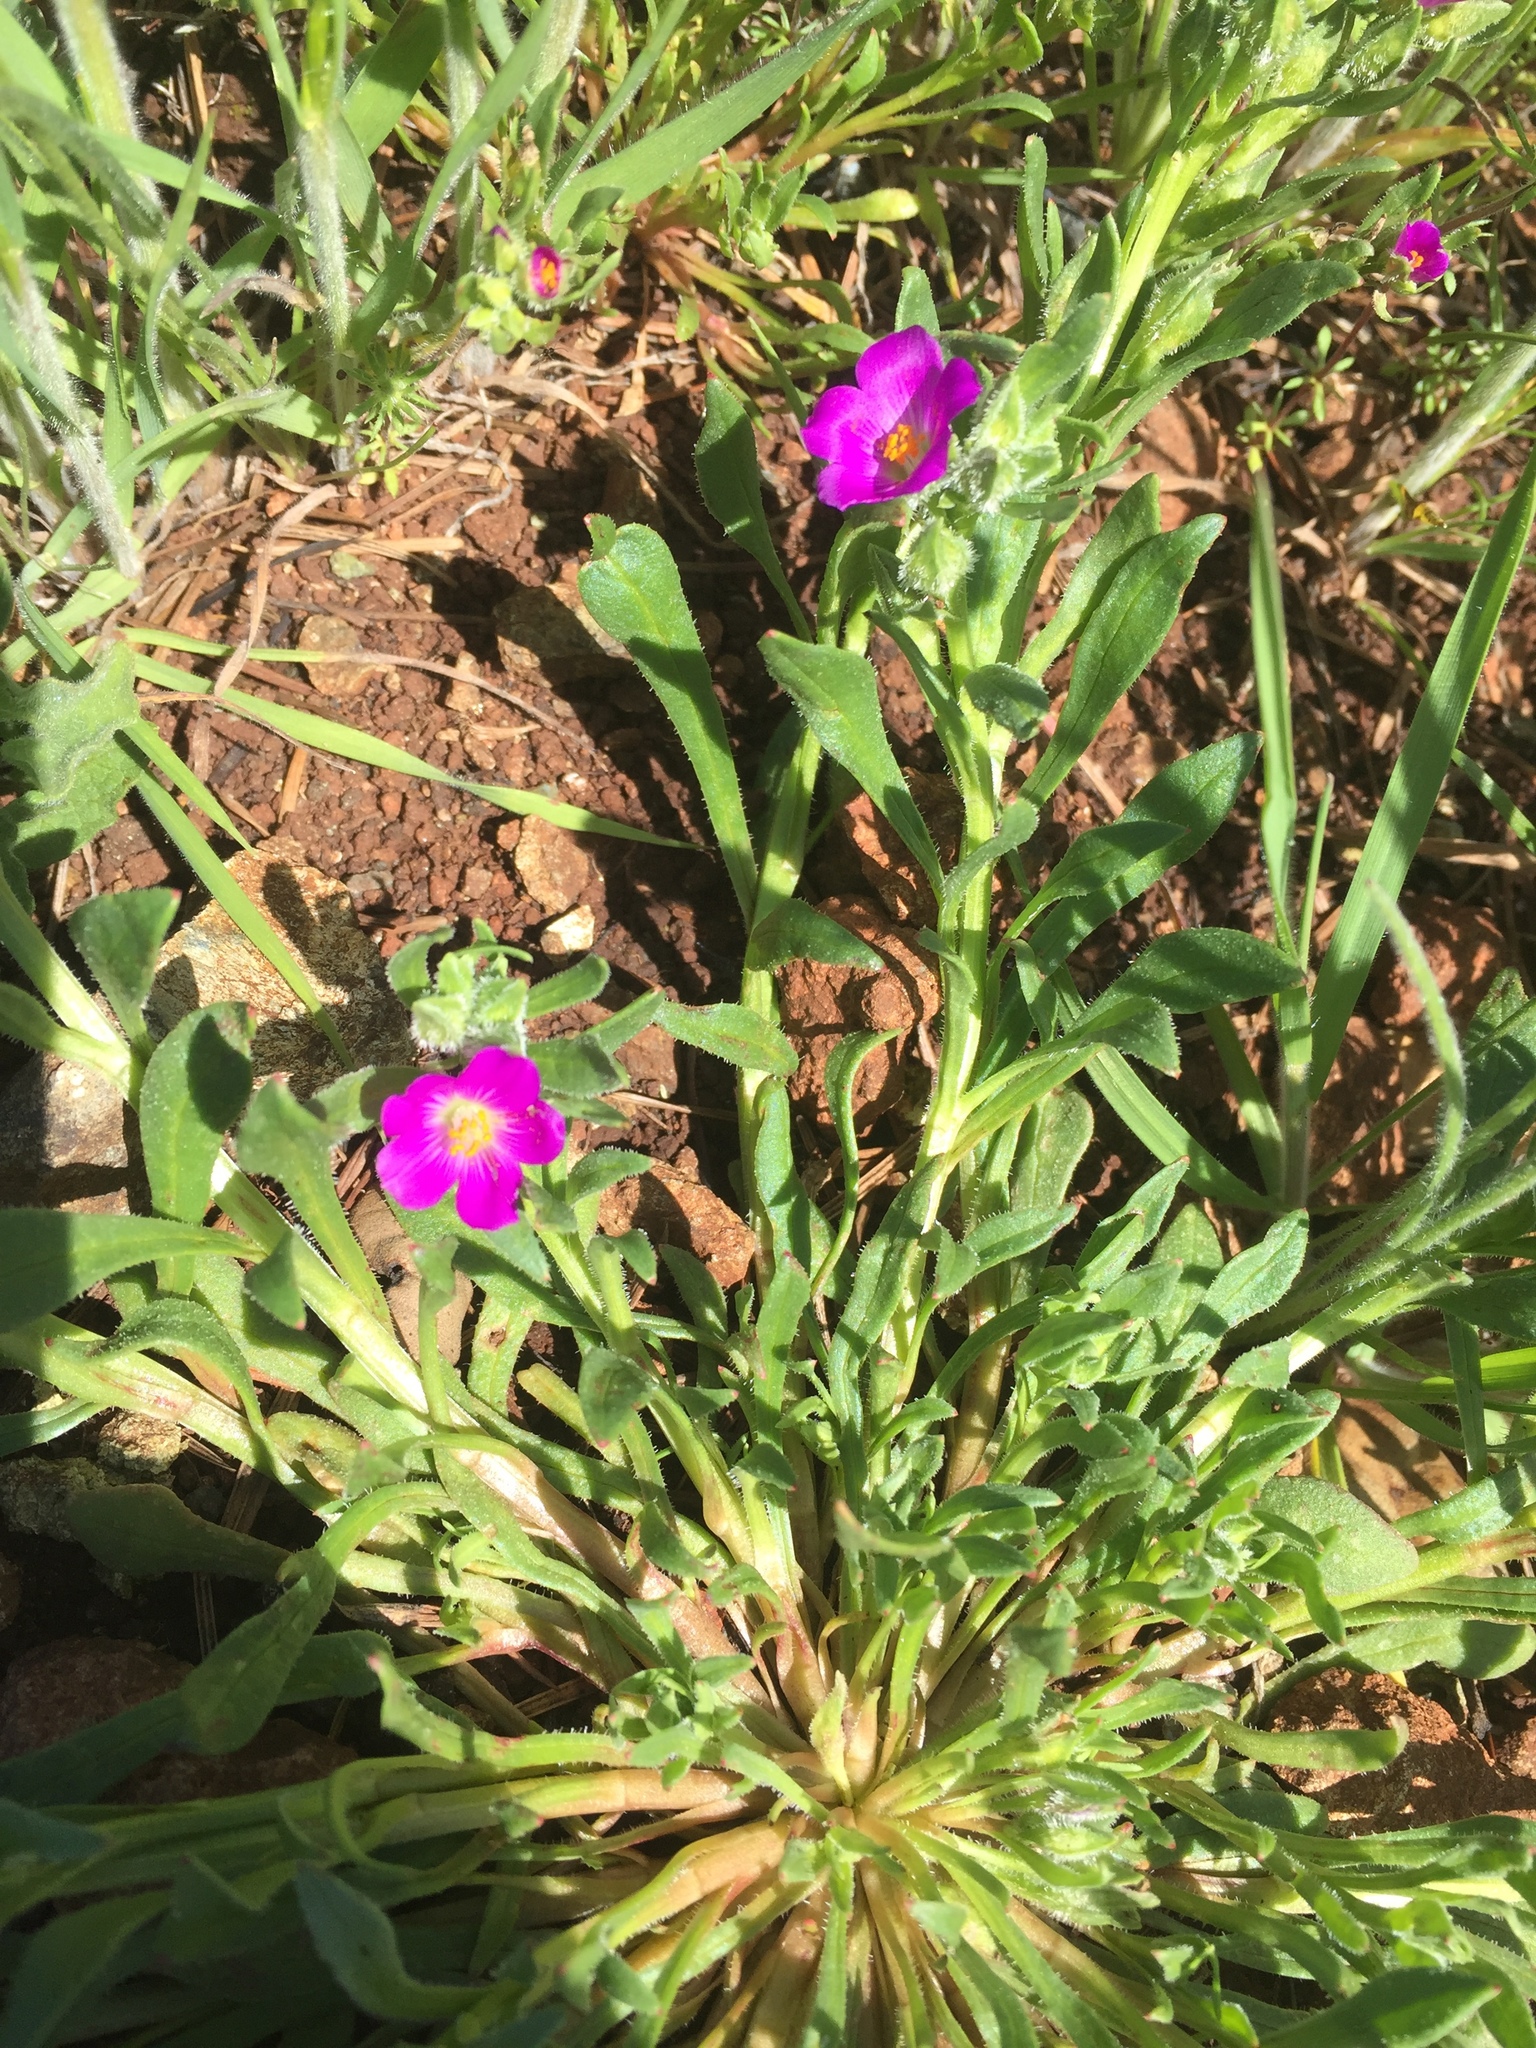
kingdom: Plantae
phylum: Tracheophyta
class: Magnoliopsida
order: Caryophyllales
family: Montiaceae
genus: Calandrinia
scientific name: Calandrinia menziesii
